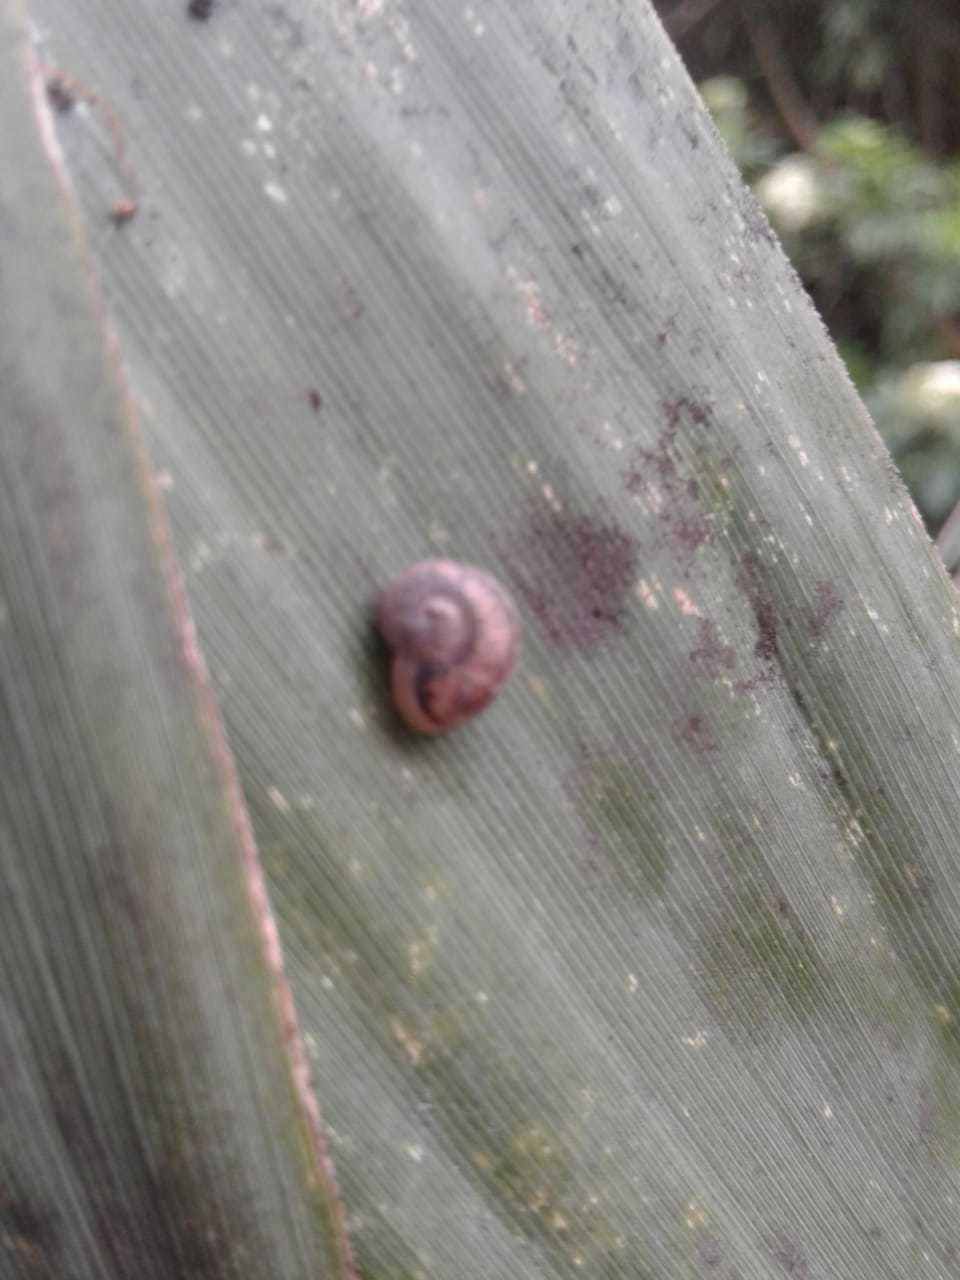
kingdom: Animalia
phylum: Mollusca
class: Gastropoda
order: Stylommatophora
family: Helicidae
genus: Cornu
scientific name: Cornu aspersum
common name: Brown garden snail
